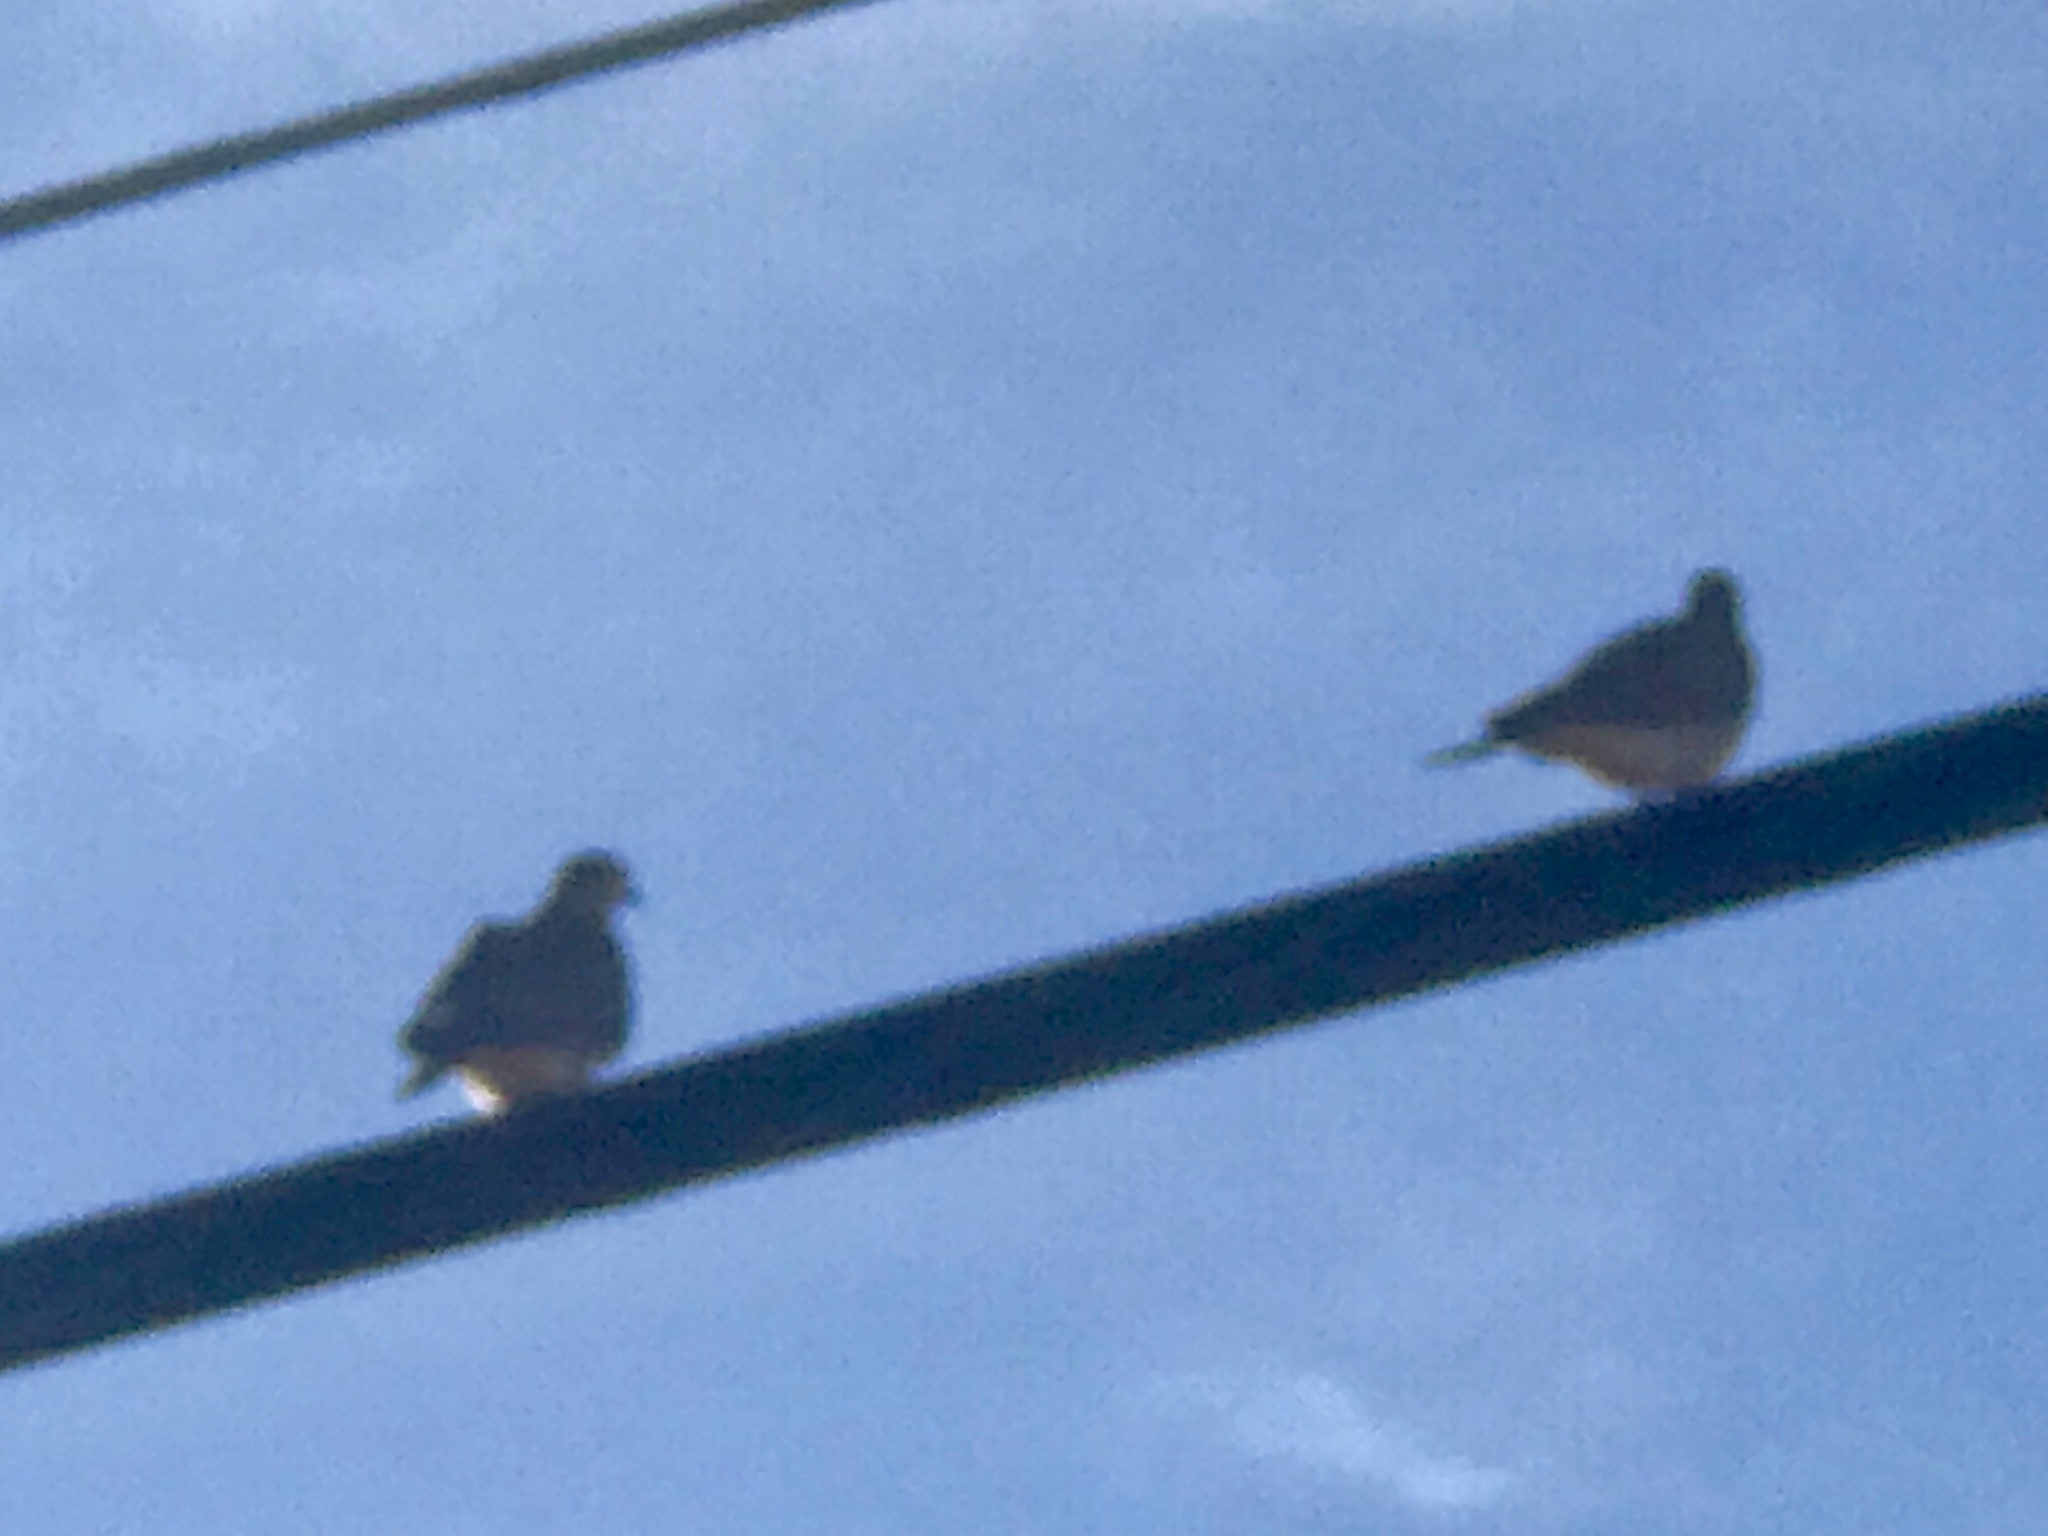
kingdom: Animalia
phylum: Chordata
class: Aves
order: Columbiformes
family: Columbidae
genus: Zenaida
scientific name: Zenaida macroura
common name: Mourning dove
